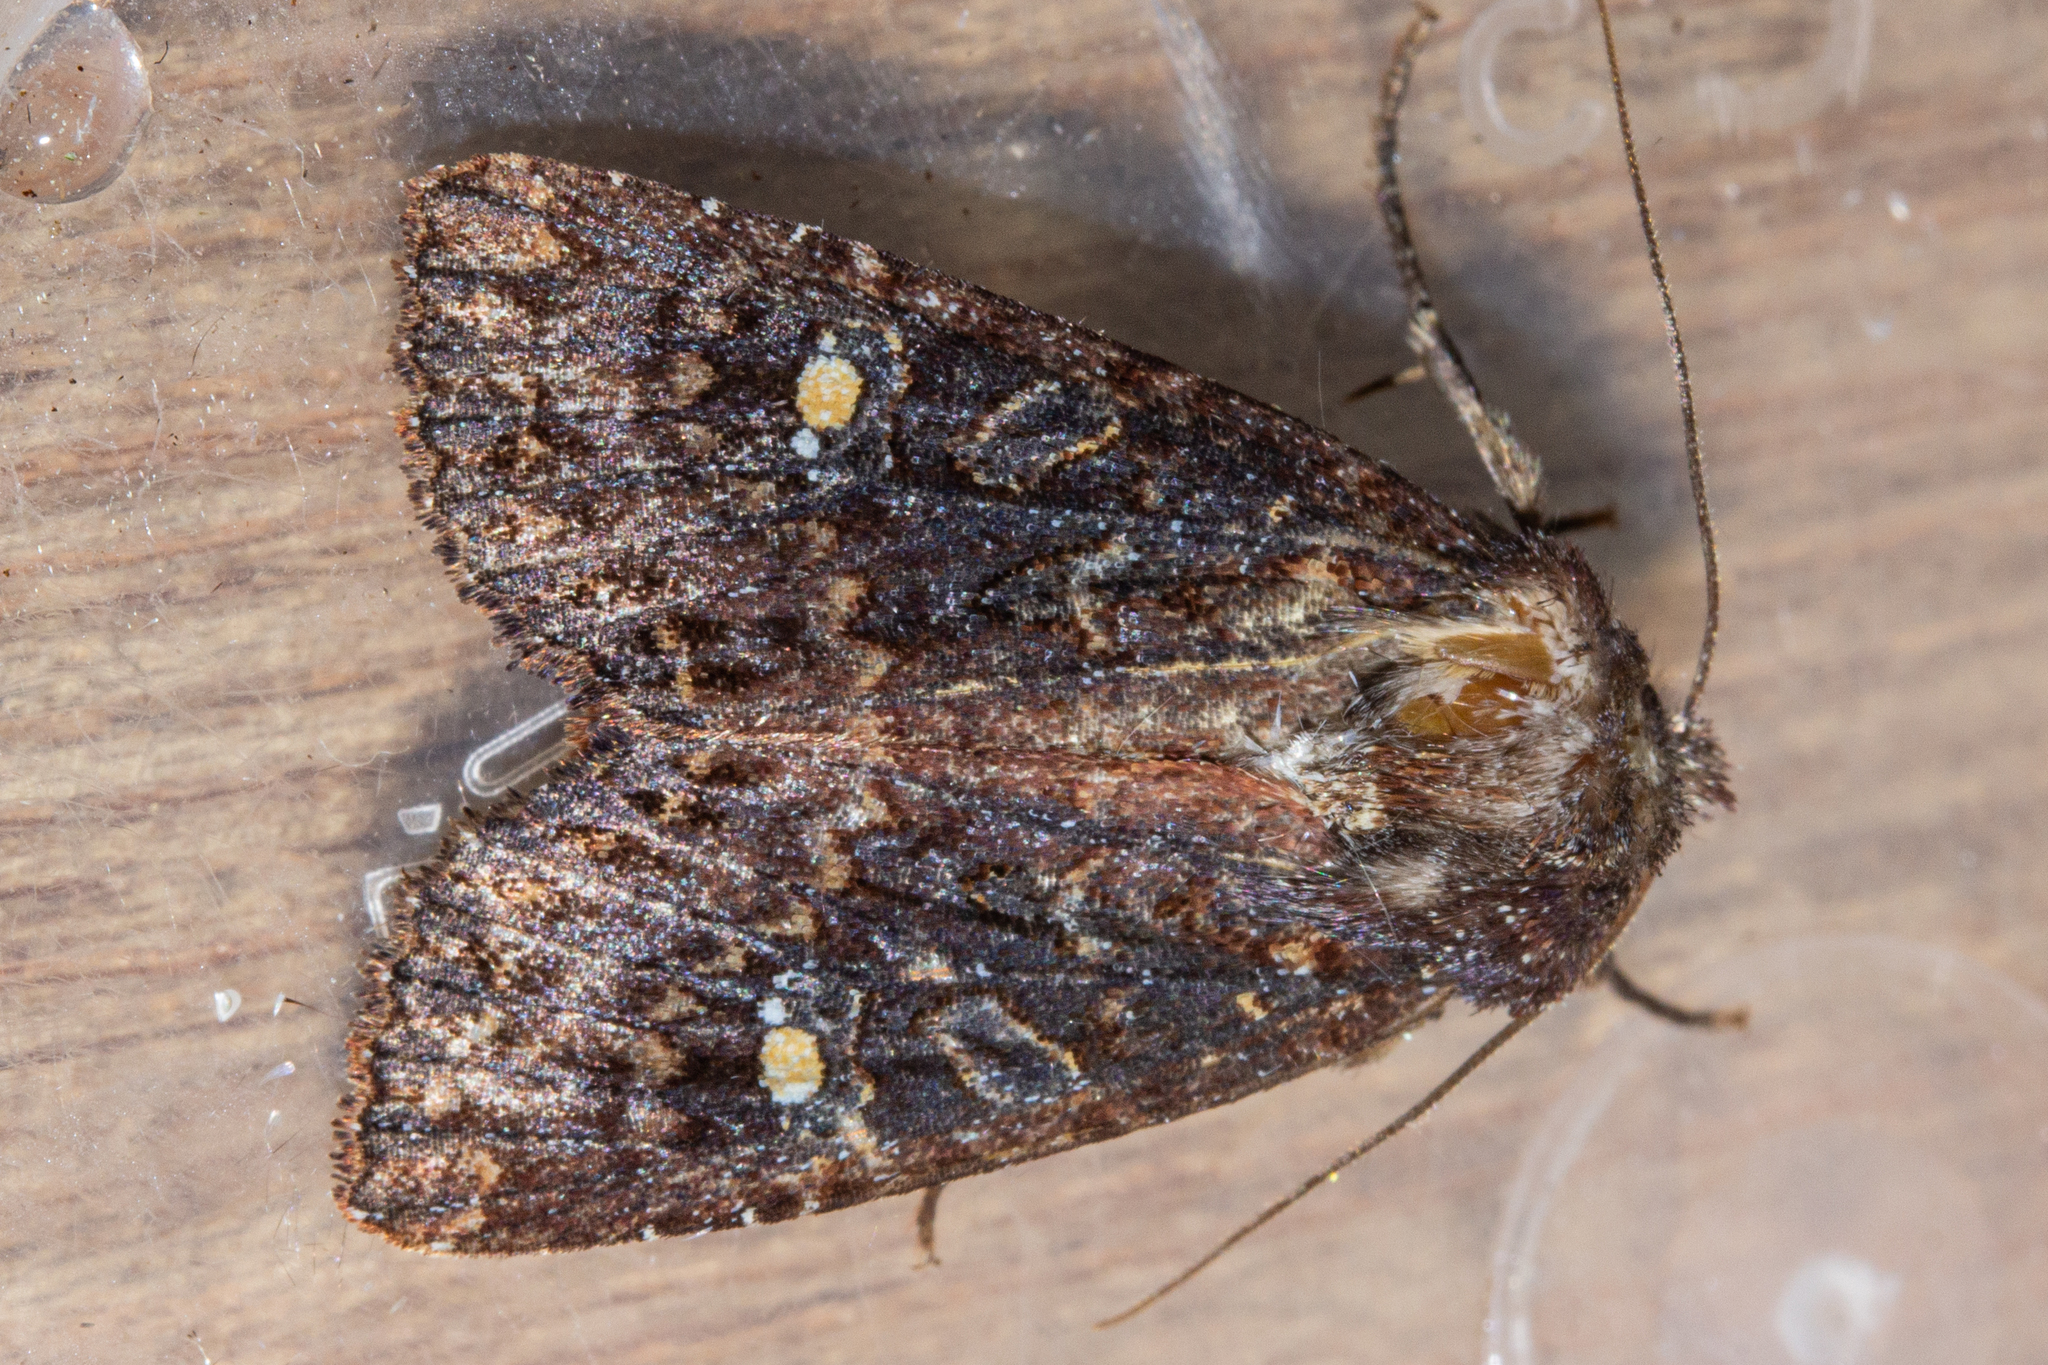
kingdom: Animalia
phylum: Arthropoda
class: Insecta
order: Lepidoptera
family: Noctuidae
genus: Meterana
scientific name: Meterana vitiosa
